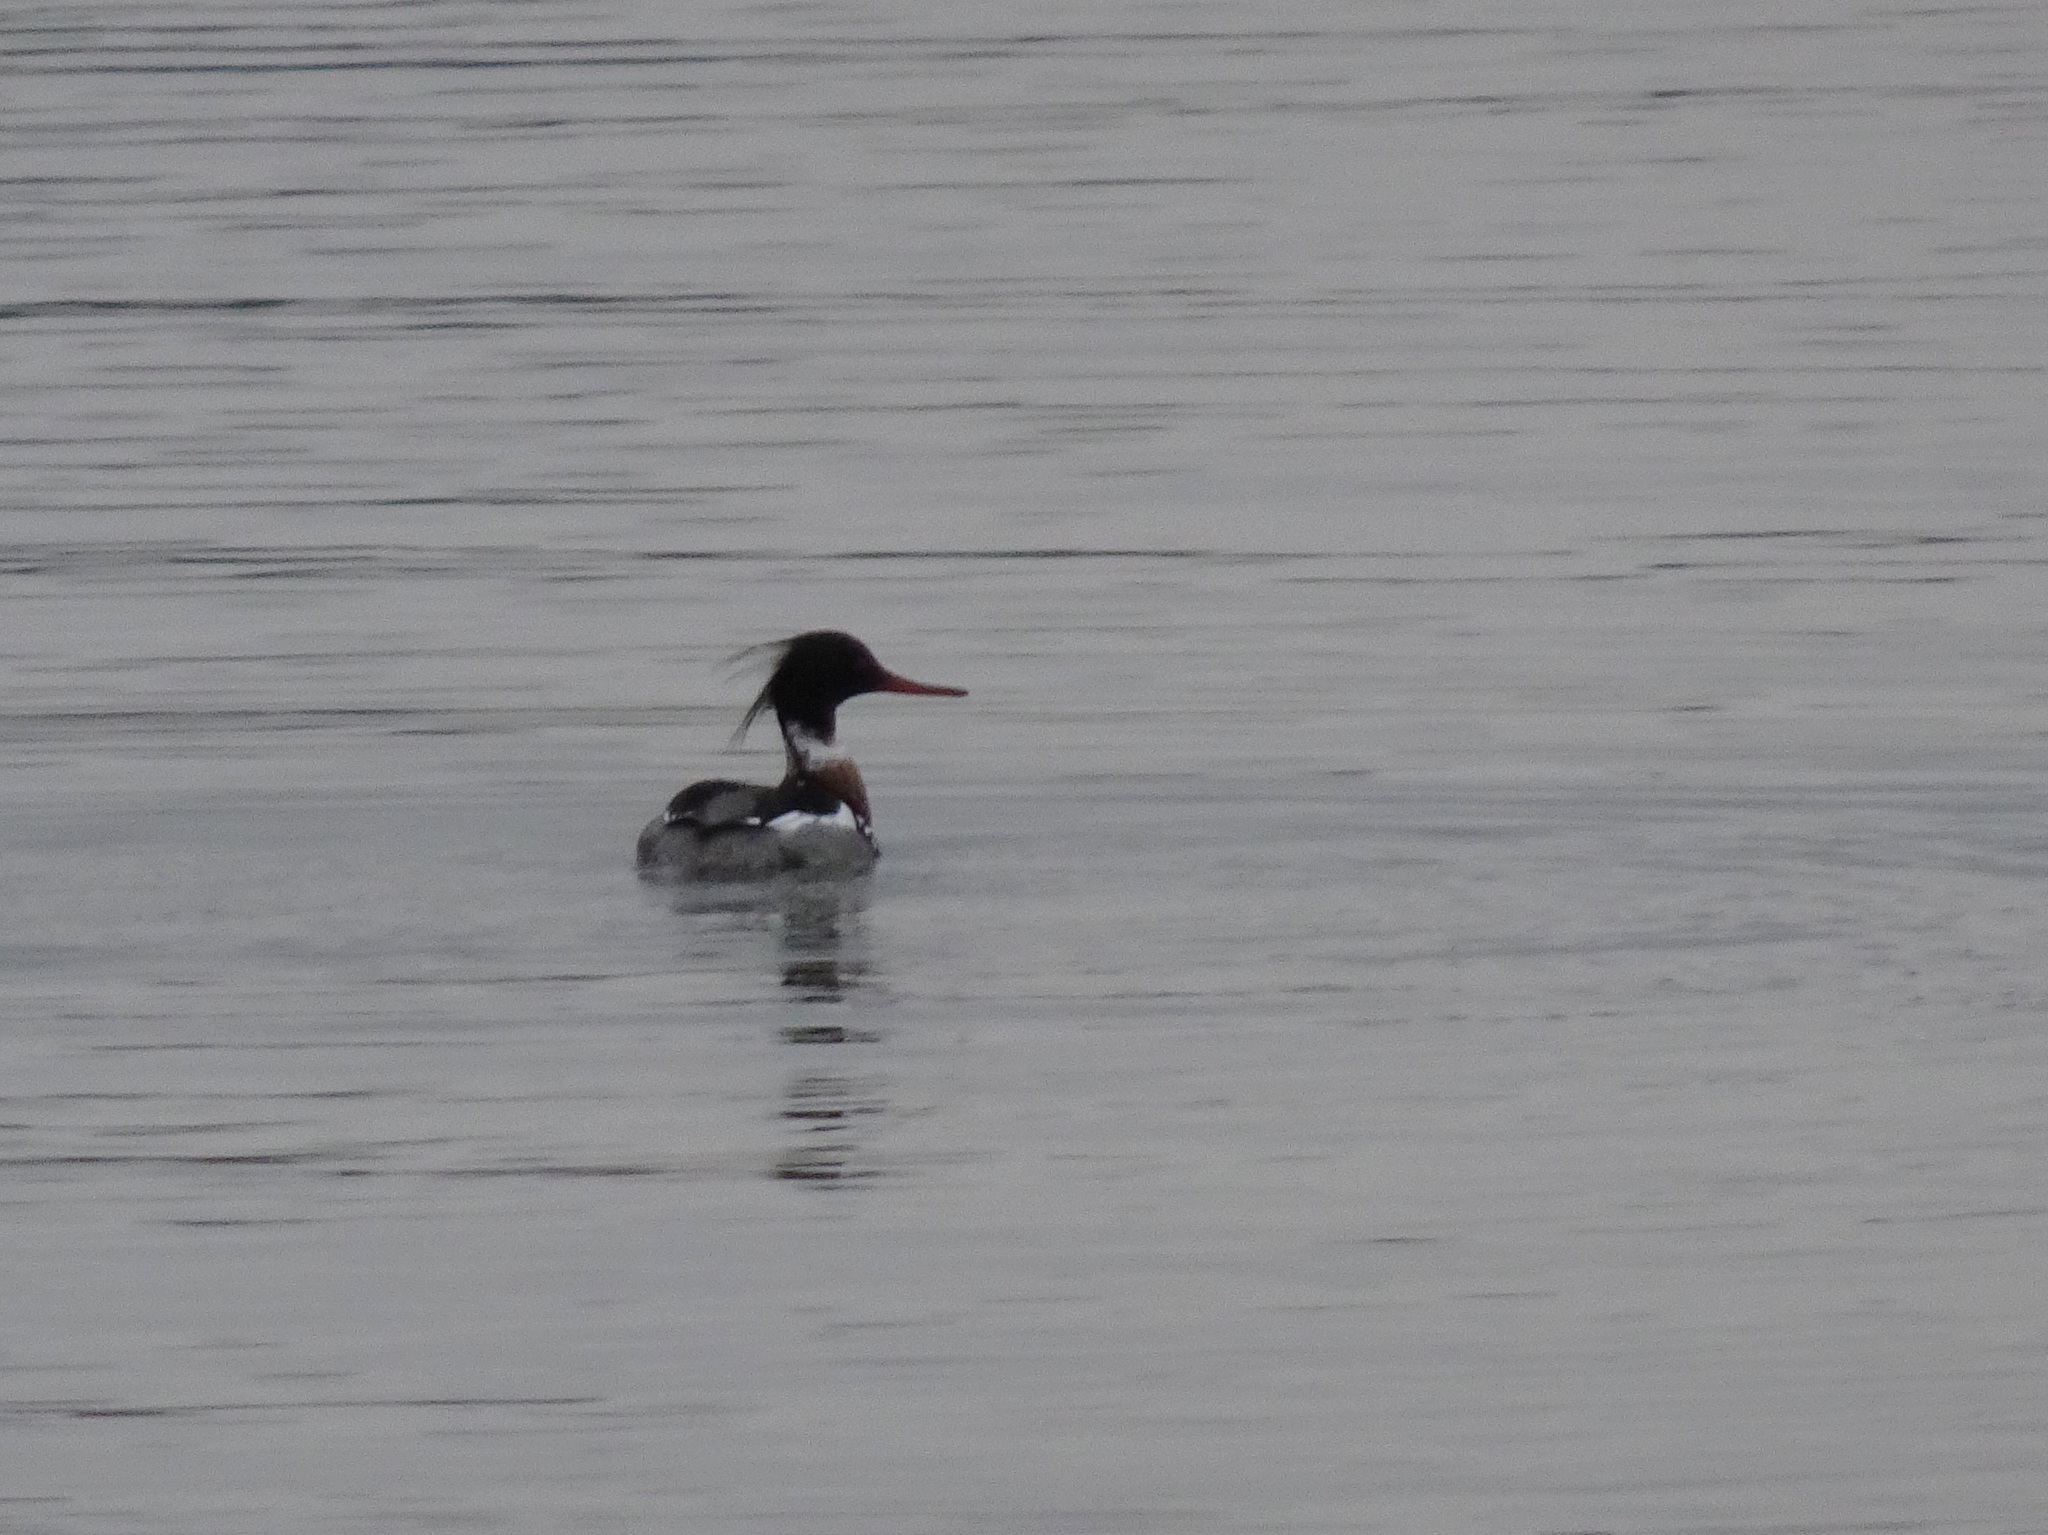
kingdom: Animalia
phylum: Chordata
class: Aves
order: Anseriformes
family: Anatidae
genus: Mergus
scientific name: Mergus serrator
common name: Red-breasted merganser
